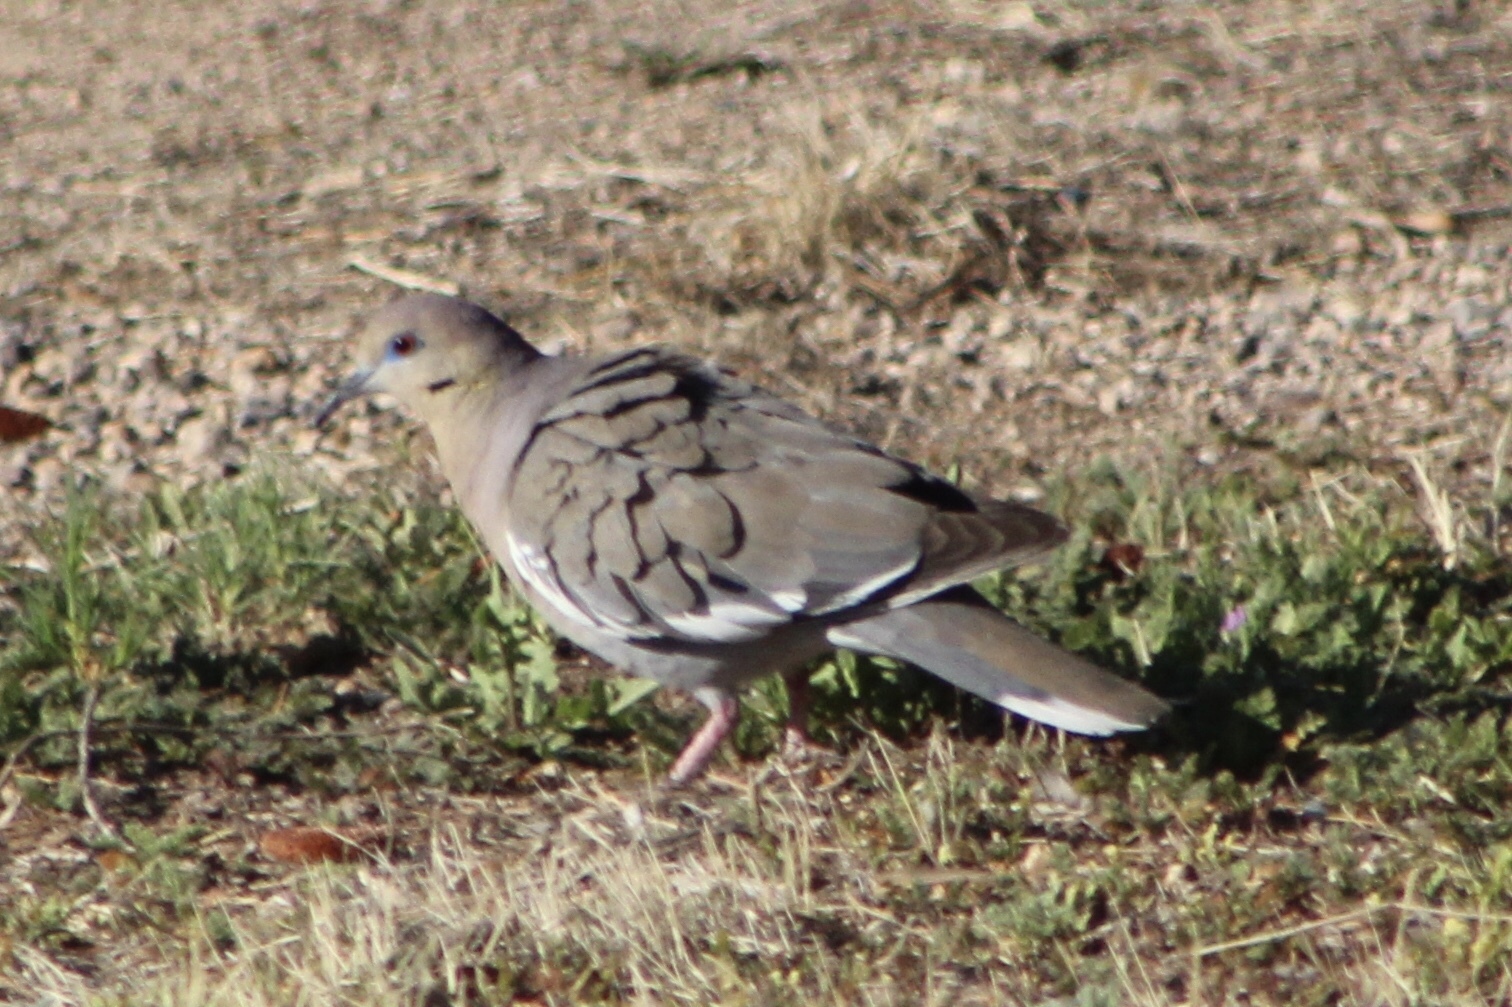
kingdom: Animalia
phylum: Chordata
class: Aves
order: Columbiformes
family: Columbidae
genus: Zenaida
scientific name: Zenaida asiatica
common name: White-winged dove
